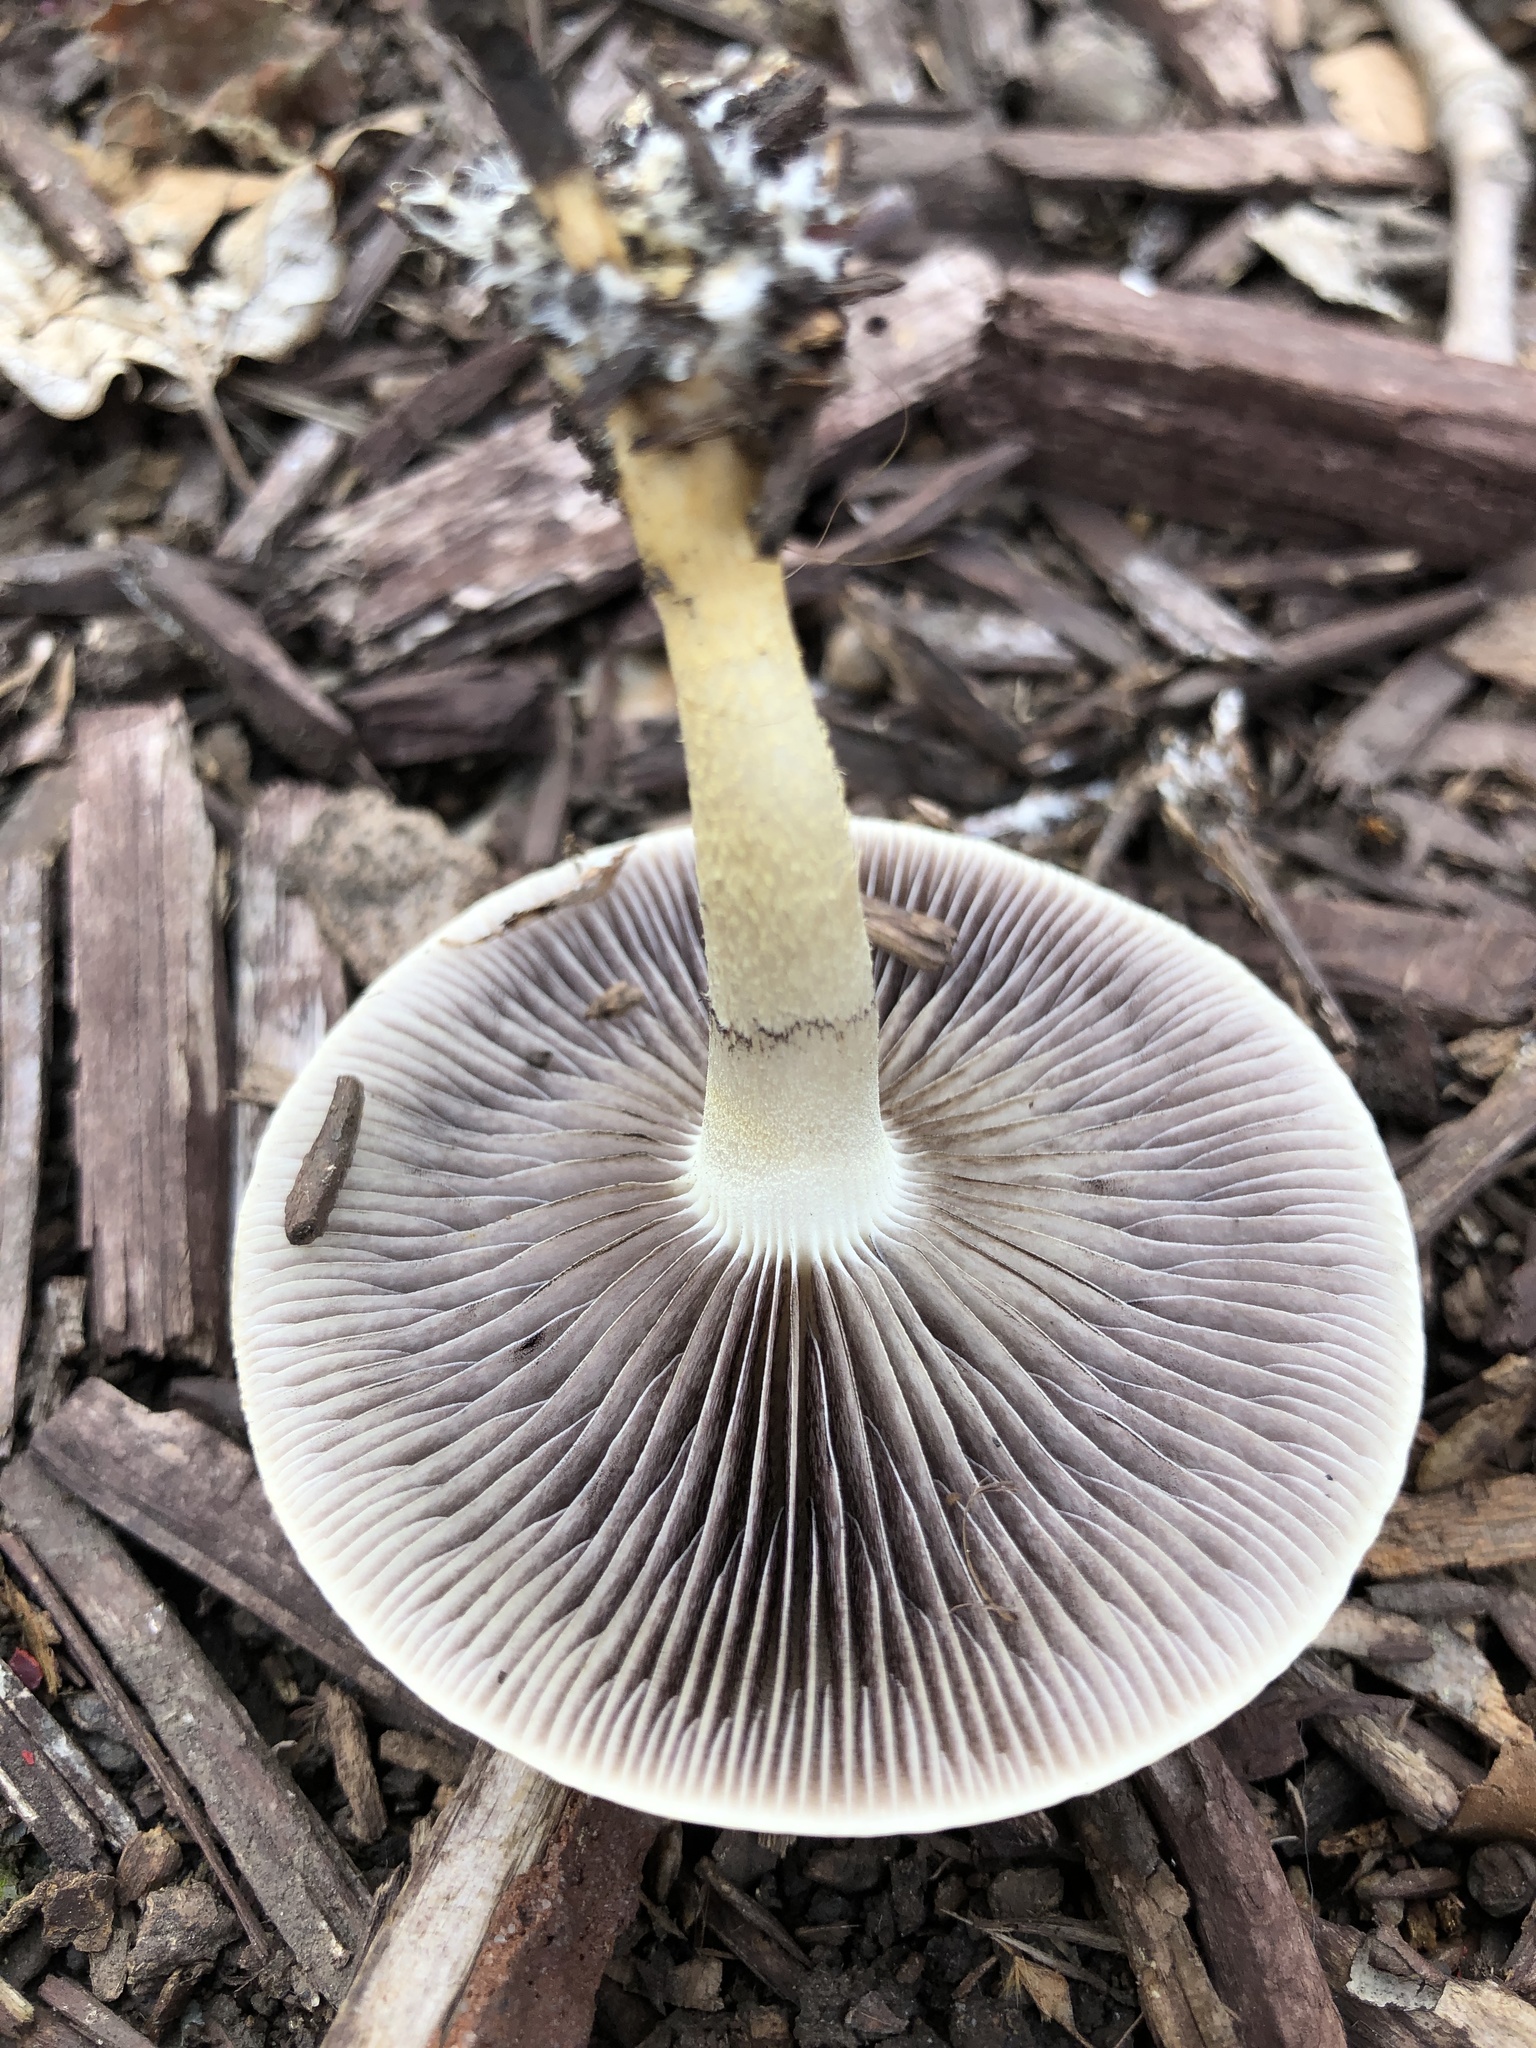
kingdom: Fungi
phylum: Basidiomycota
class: Agaricomycetes
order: Agaricales
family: Strophariaceae
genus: Leratiomyces
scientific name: Leratiomyces percevalii
